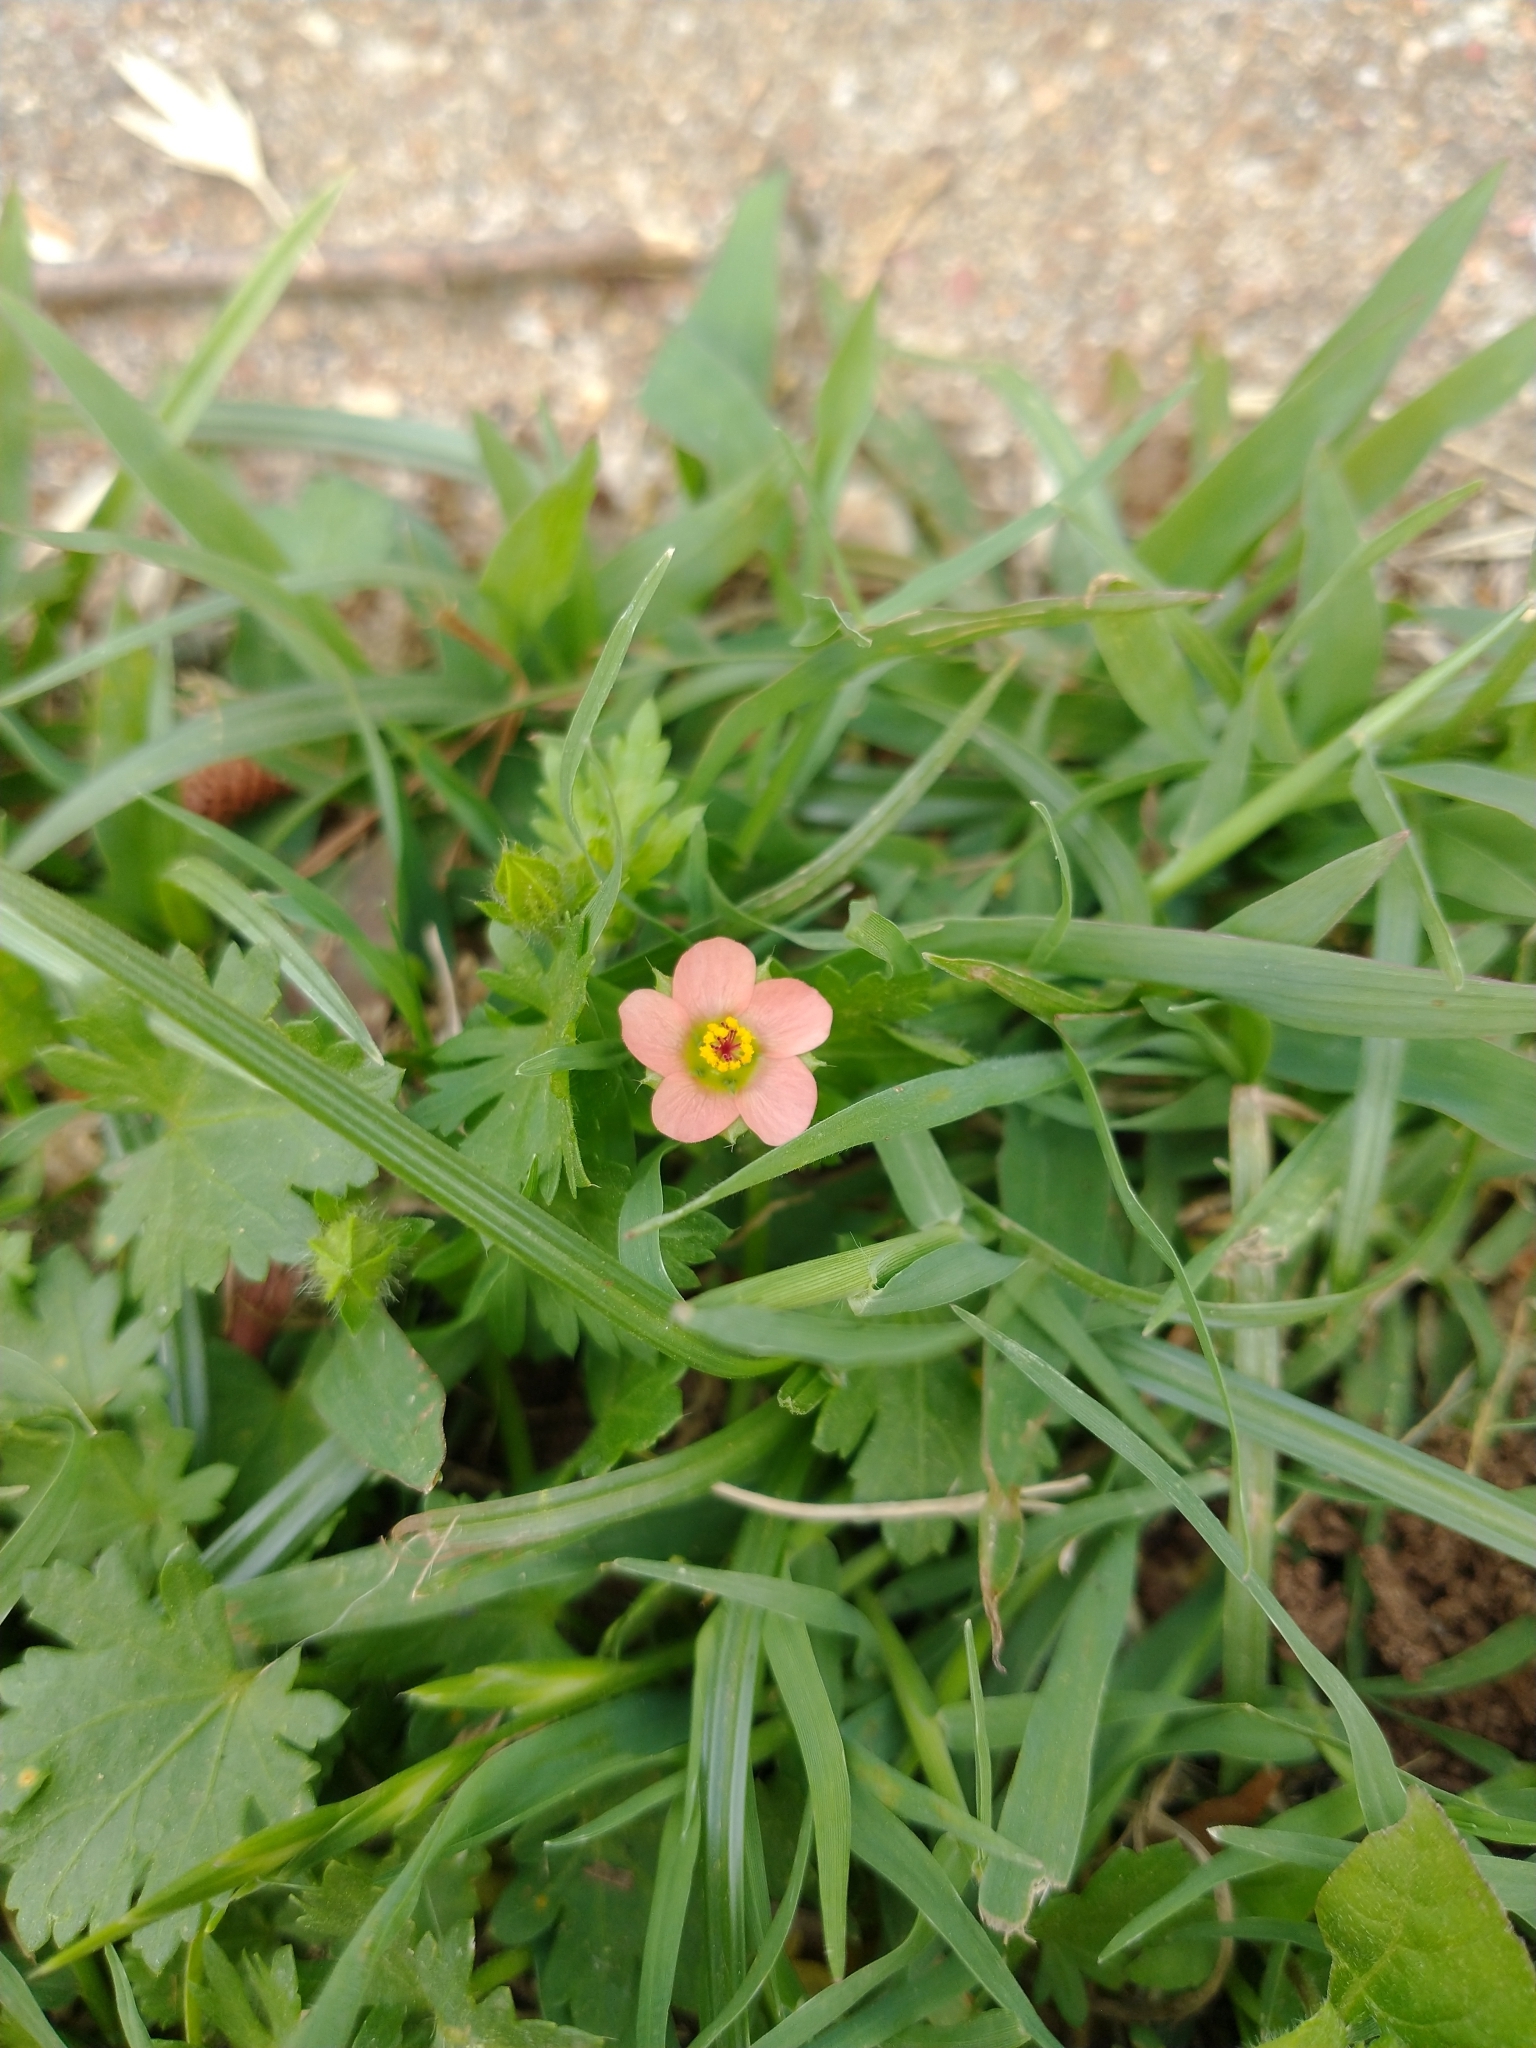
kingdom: Plantae
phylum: Tracheophyta
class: Magnoliopsida
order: Malvales
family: Malvaceae
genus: Modiola
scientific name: Modiola caroliniana
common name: Carolina bristlemallow
